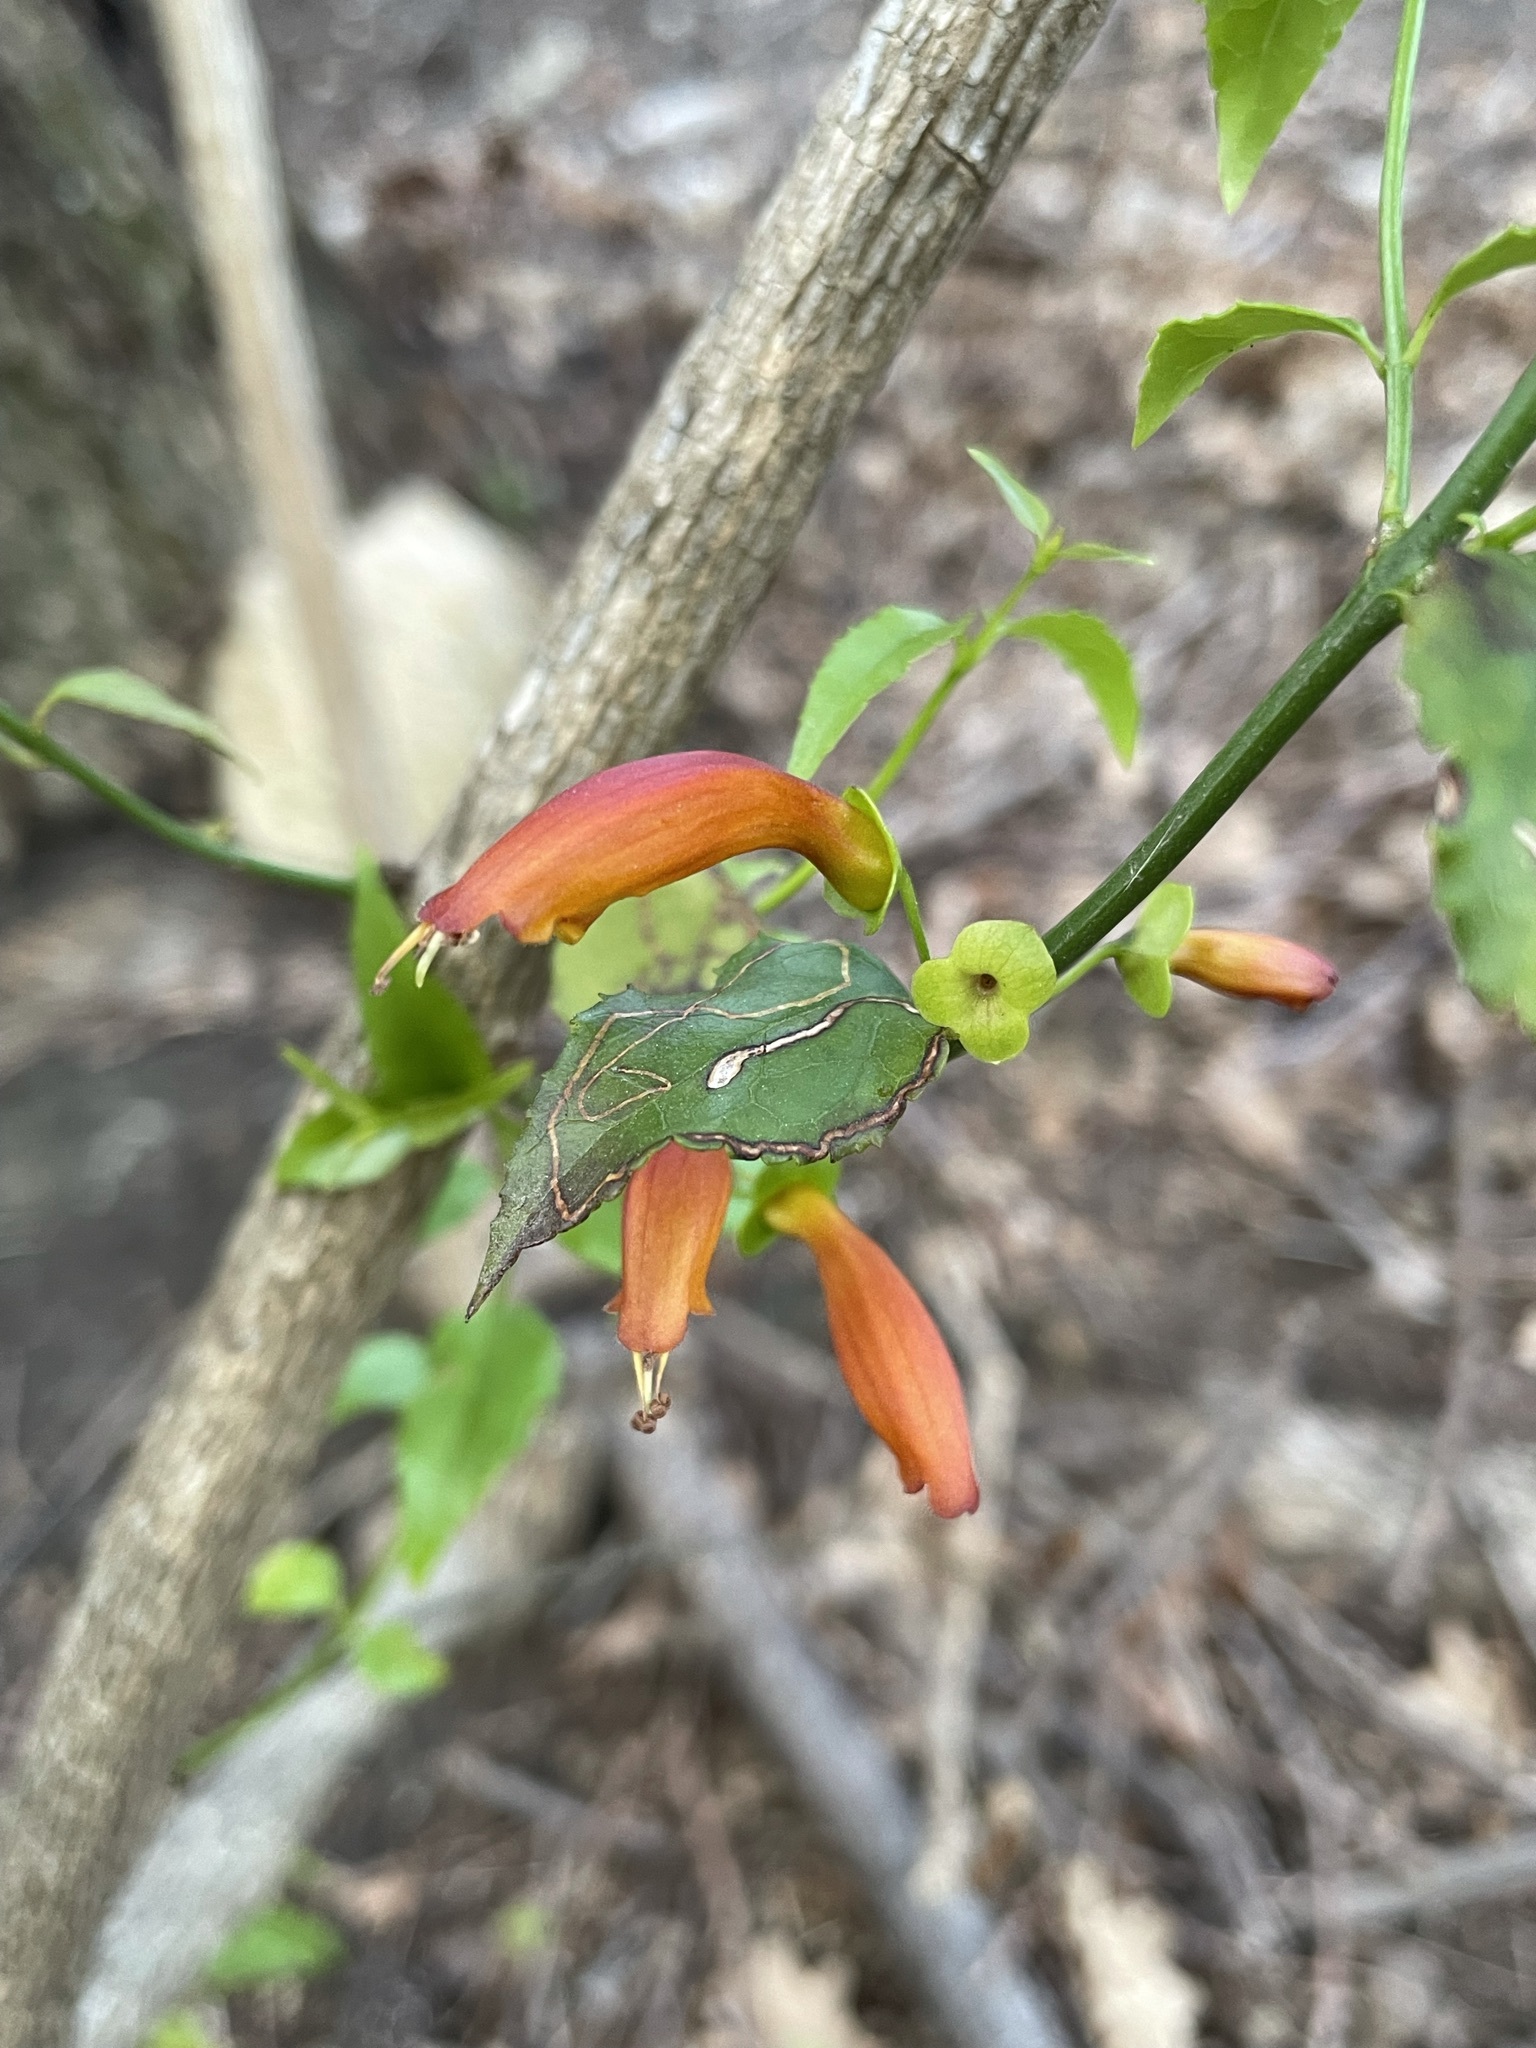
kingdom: Plantae
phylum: Tracheophyta
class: Magnoliopsida
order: Lamiales
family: Stilbaceae
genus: Halleria
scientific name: Halleria lucida
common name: Tree fuschia
